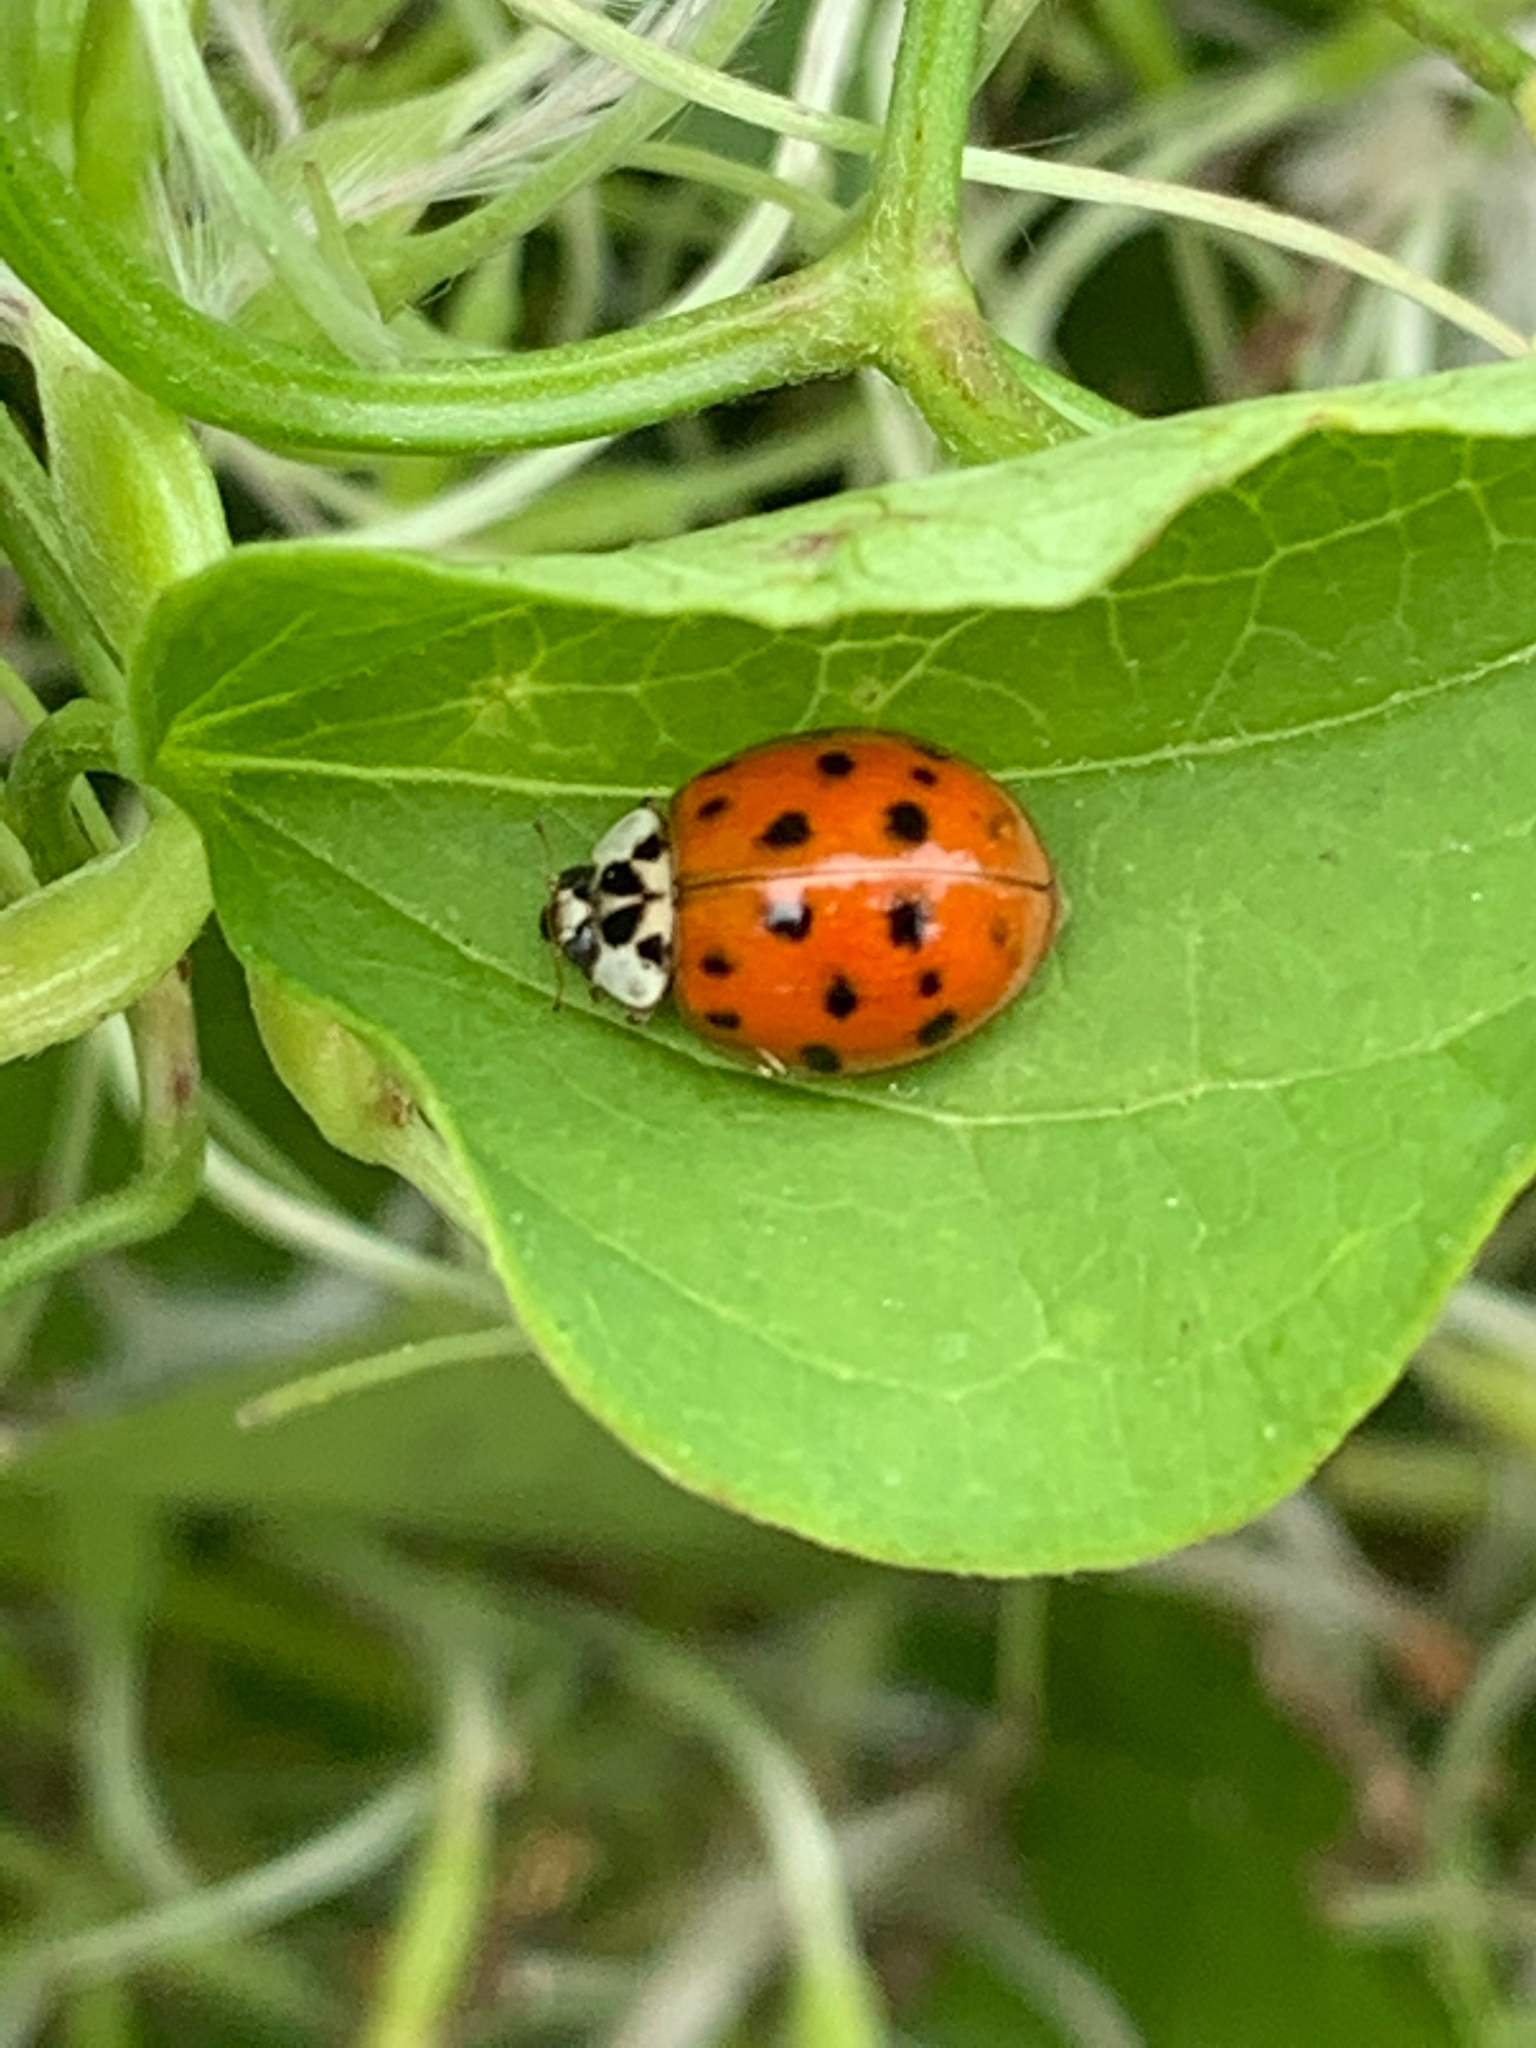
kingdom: Animalia
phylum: Arthropoda
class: Insecta
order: Coleoptera
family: Coccinellidae
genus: Harmonia
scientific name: Harmonia axyridis
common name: Harlequin ladybird
